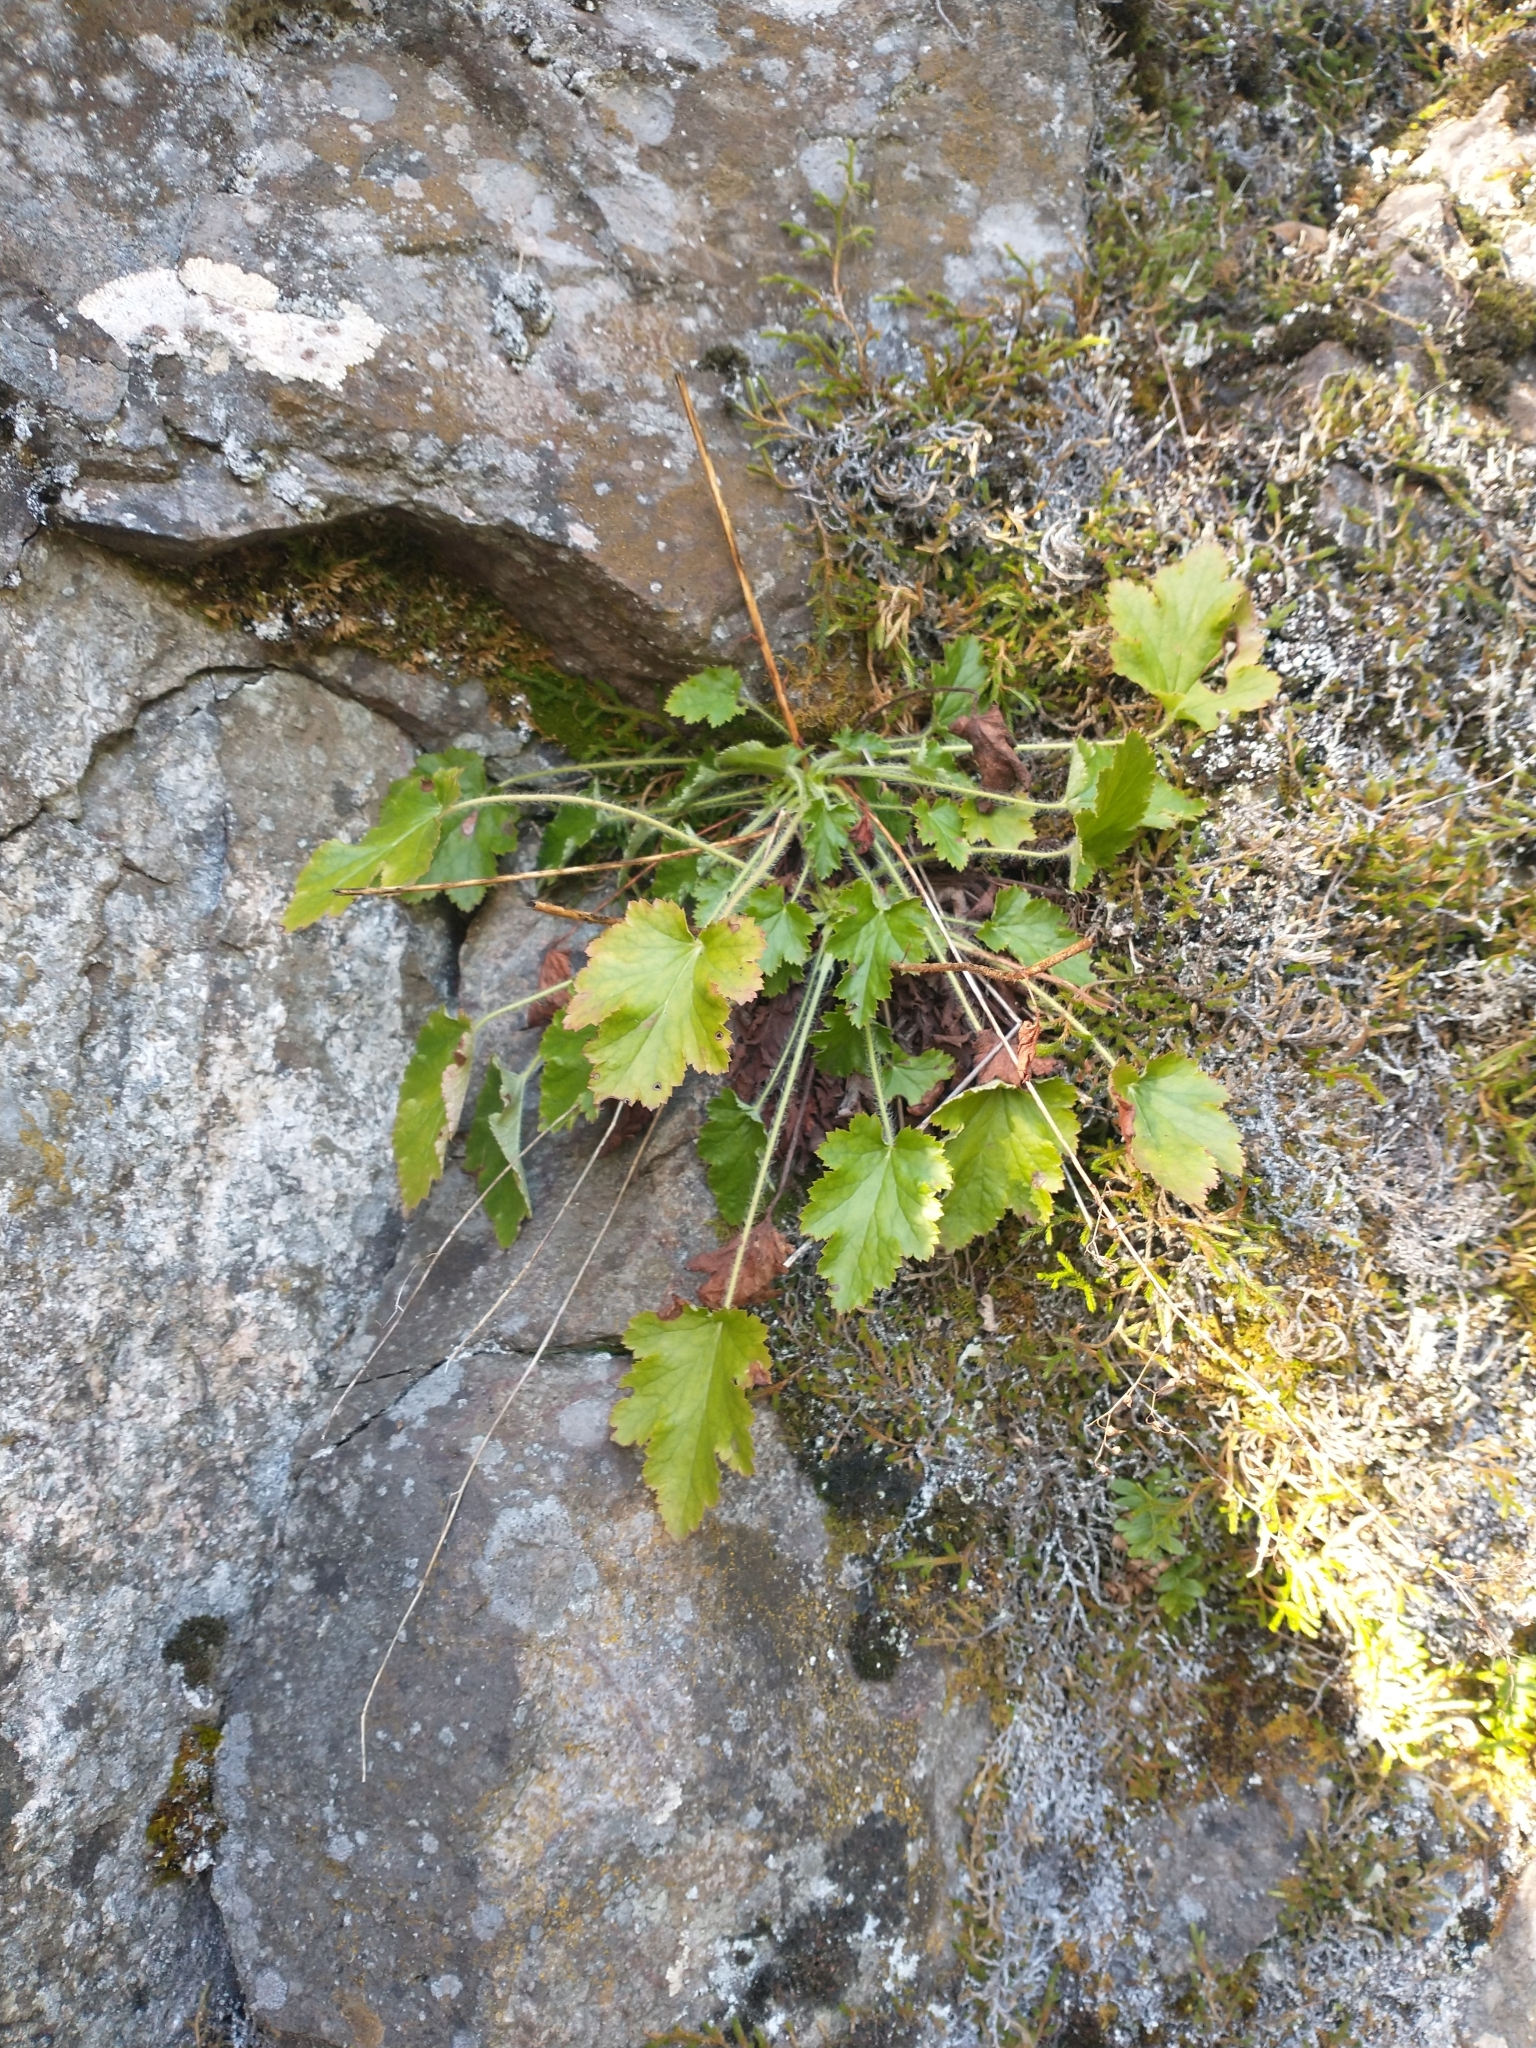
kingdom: Plantae
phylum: Tracheophyta
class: Magnoliopsida
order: Saxifragales
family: Saxifragaceae
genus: Heuchera
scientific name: Heuchera micrantha
